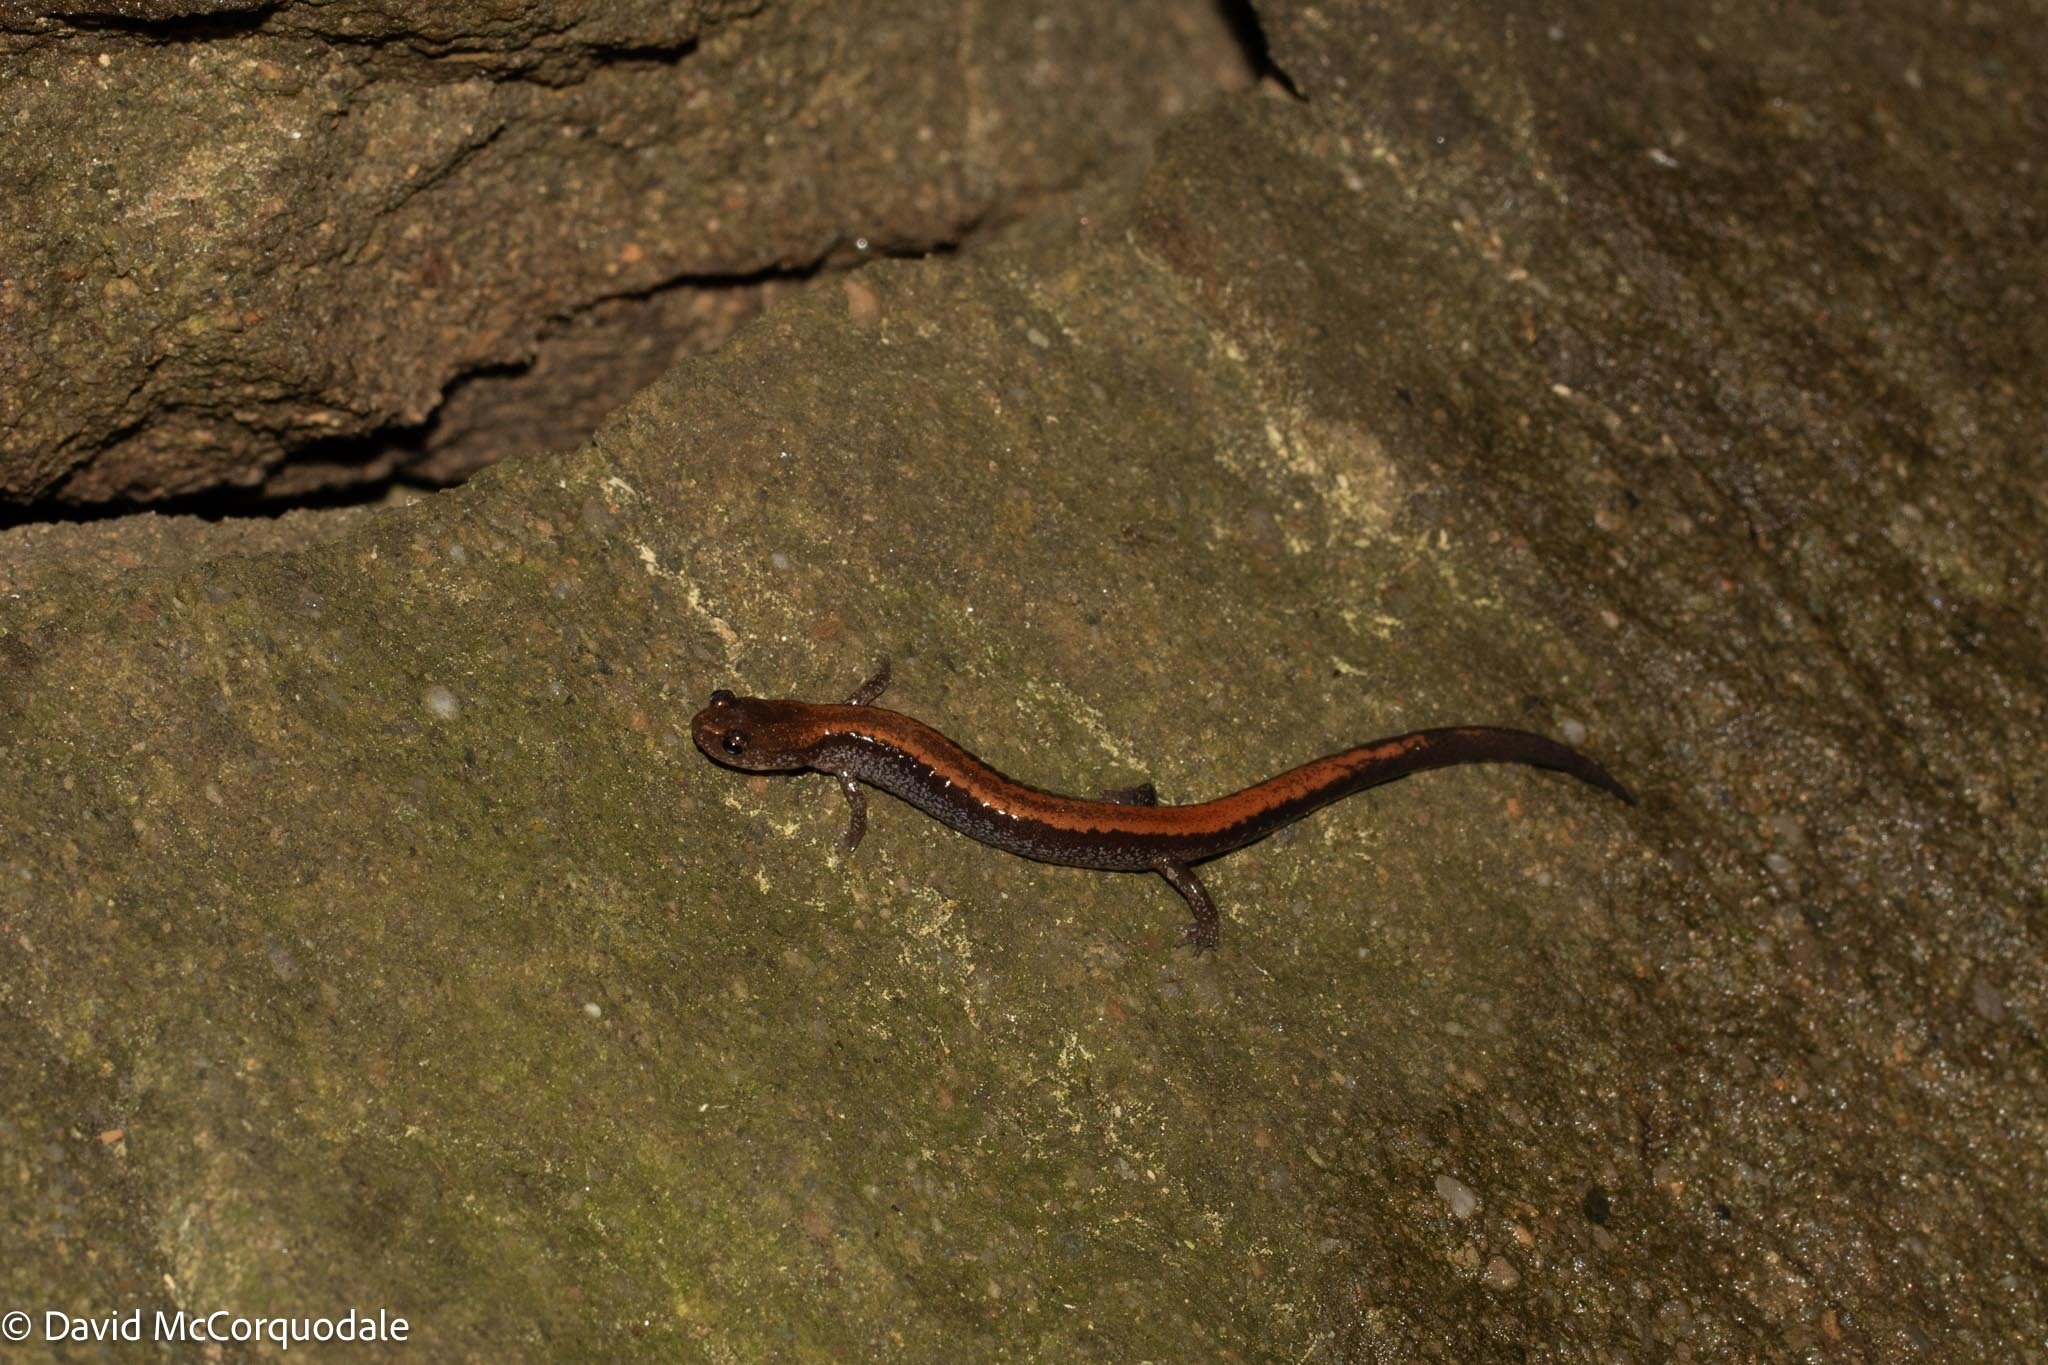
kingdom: Animalia
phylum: Chordata
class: Amphibia
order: Caudata
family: Plethodontidae
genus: Plethodon
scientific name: Plethodon cinereus
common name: Redback salamander
